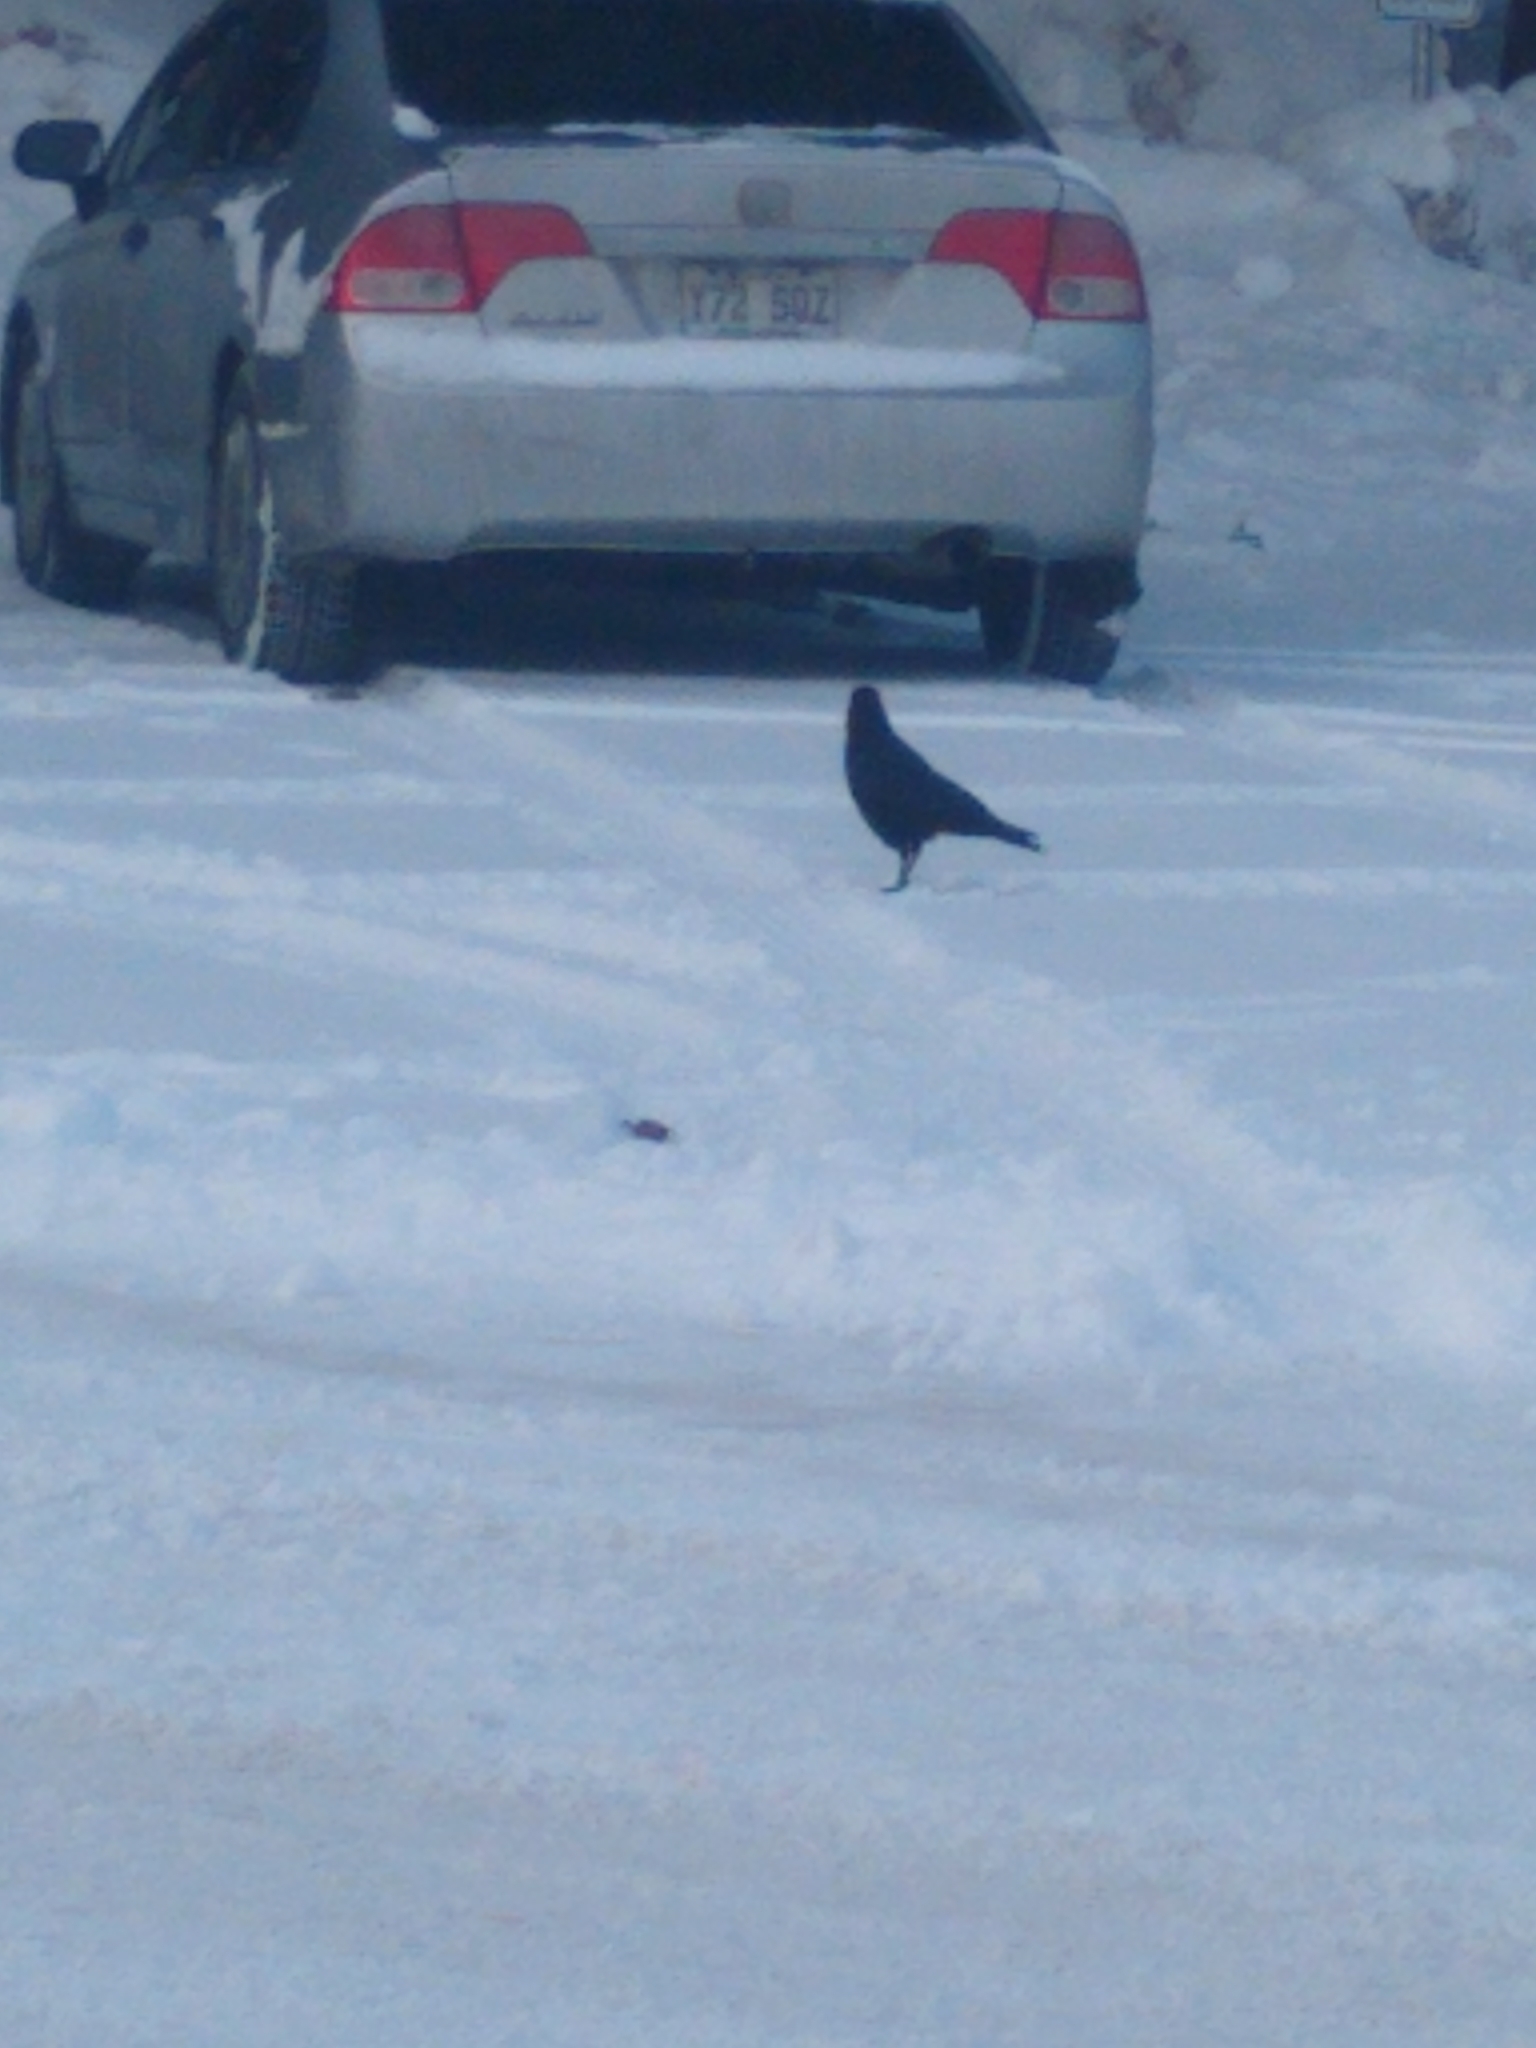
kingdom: Animalia
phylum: Chordata
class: Aves
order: Passeriformes
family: Corvidae
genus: Corvus
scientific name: Corvus brachyrhynchos
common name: American crow
